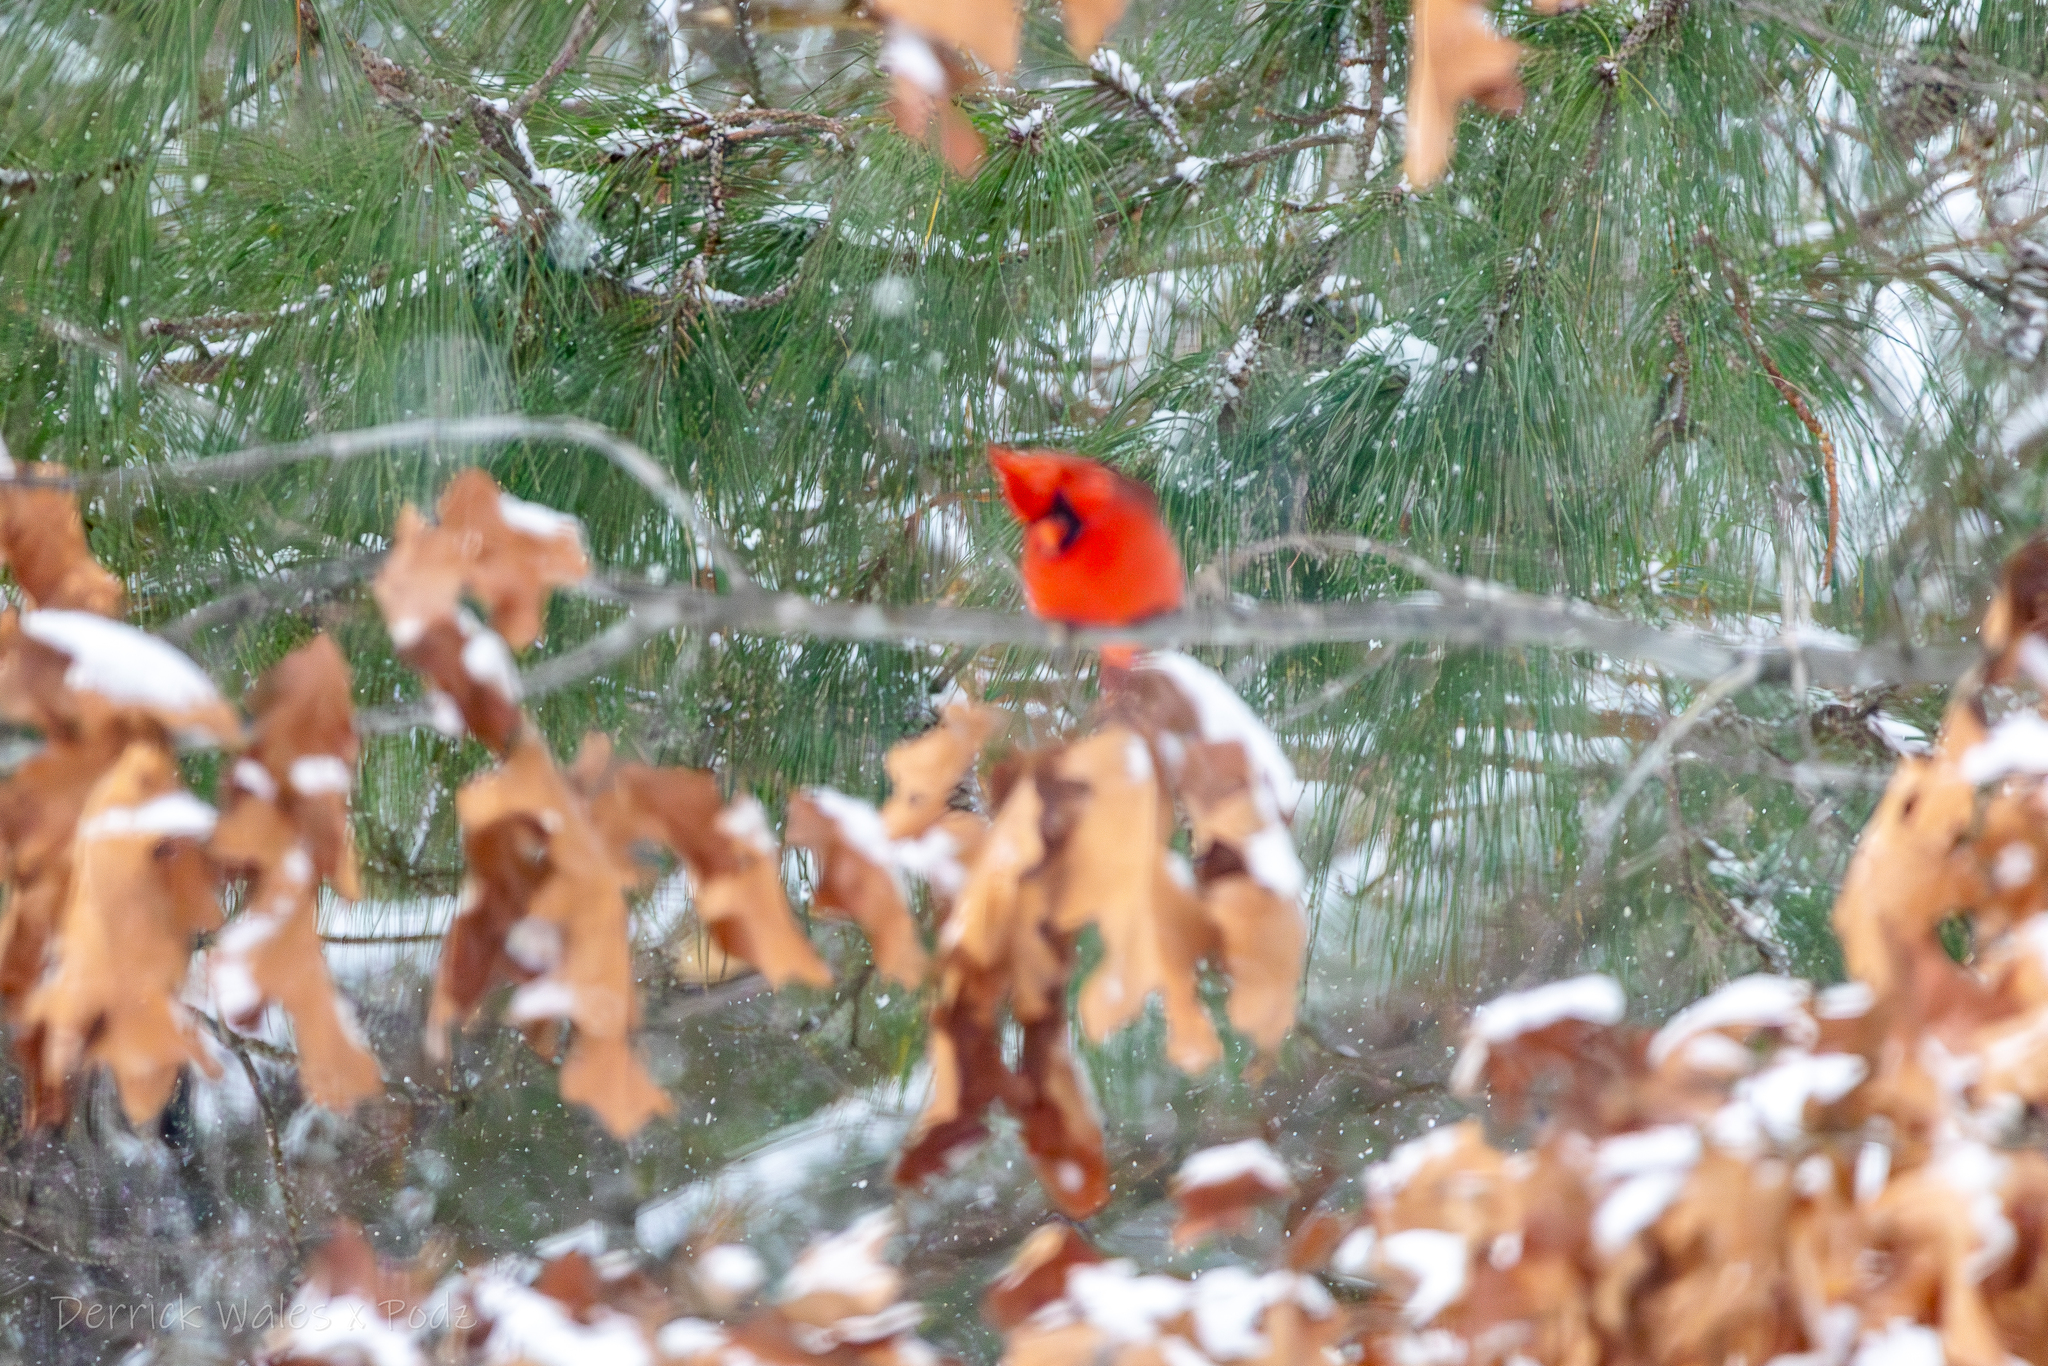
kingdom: Animalia
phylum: Chordata
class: Aves
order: Passeriformes
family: Cardinalidae
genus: Cardinalis
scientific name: Cardinalis cardinalis
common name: Northern cardinal
